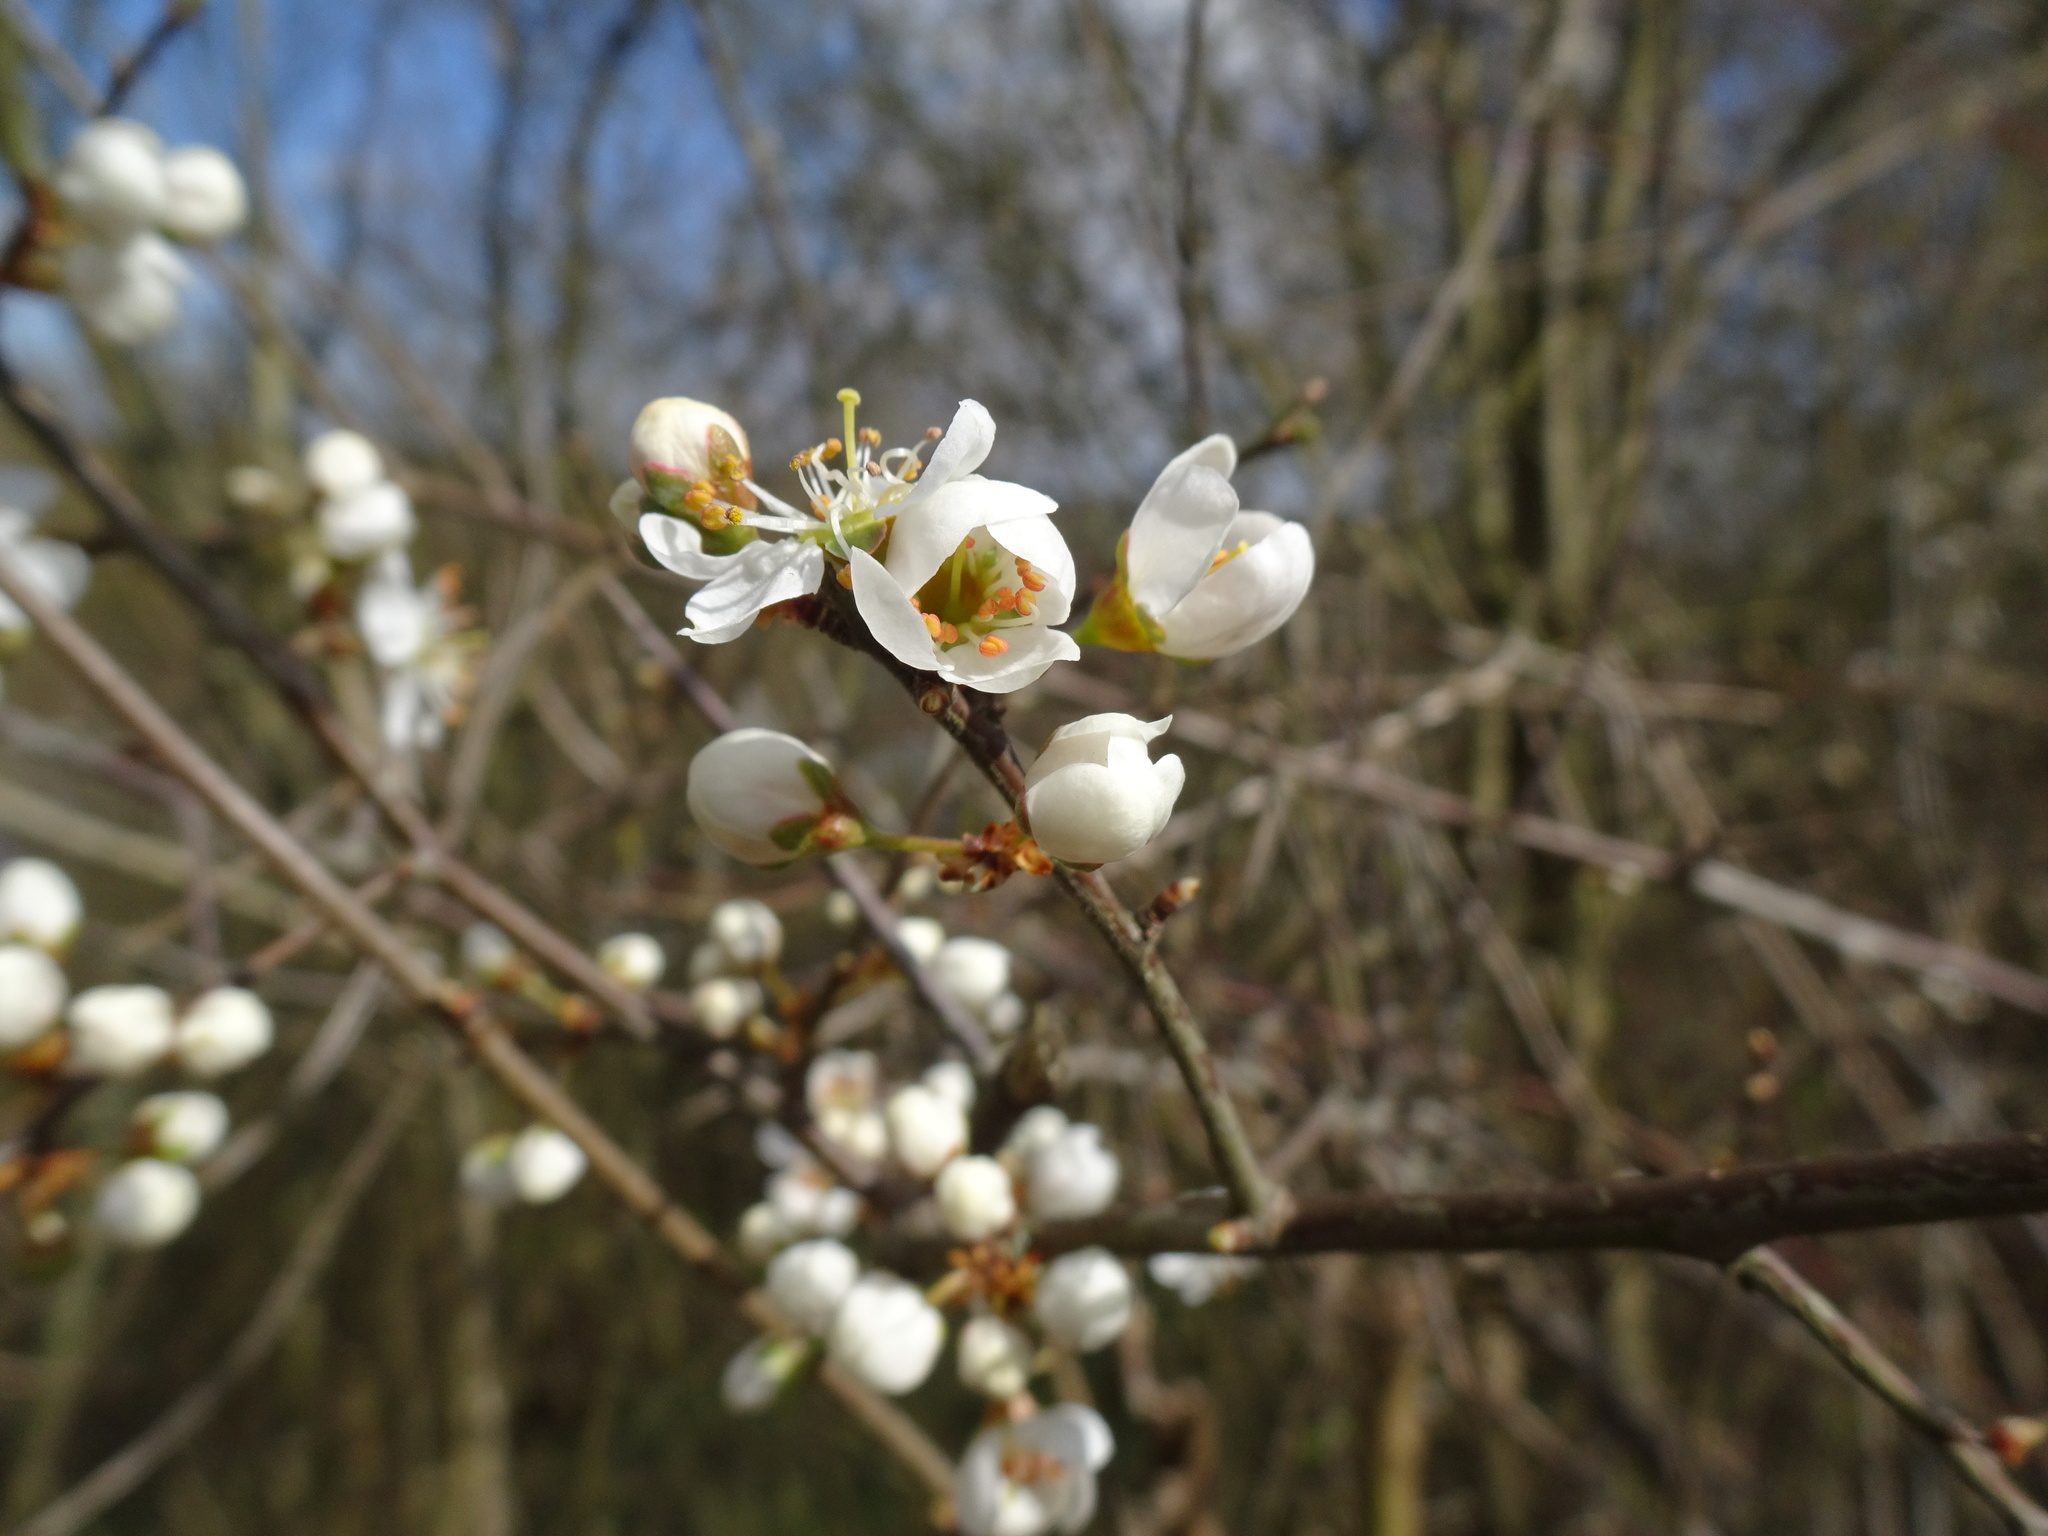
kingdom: Plantae
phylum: Tracheophyta
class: Magnoliopsida
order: Rosales
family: Rosaceae
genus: Prunus
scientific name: Prunus spinosa
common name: Blackthorn
